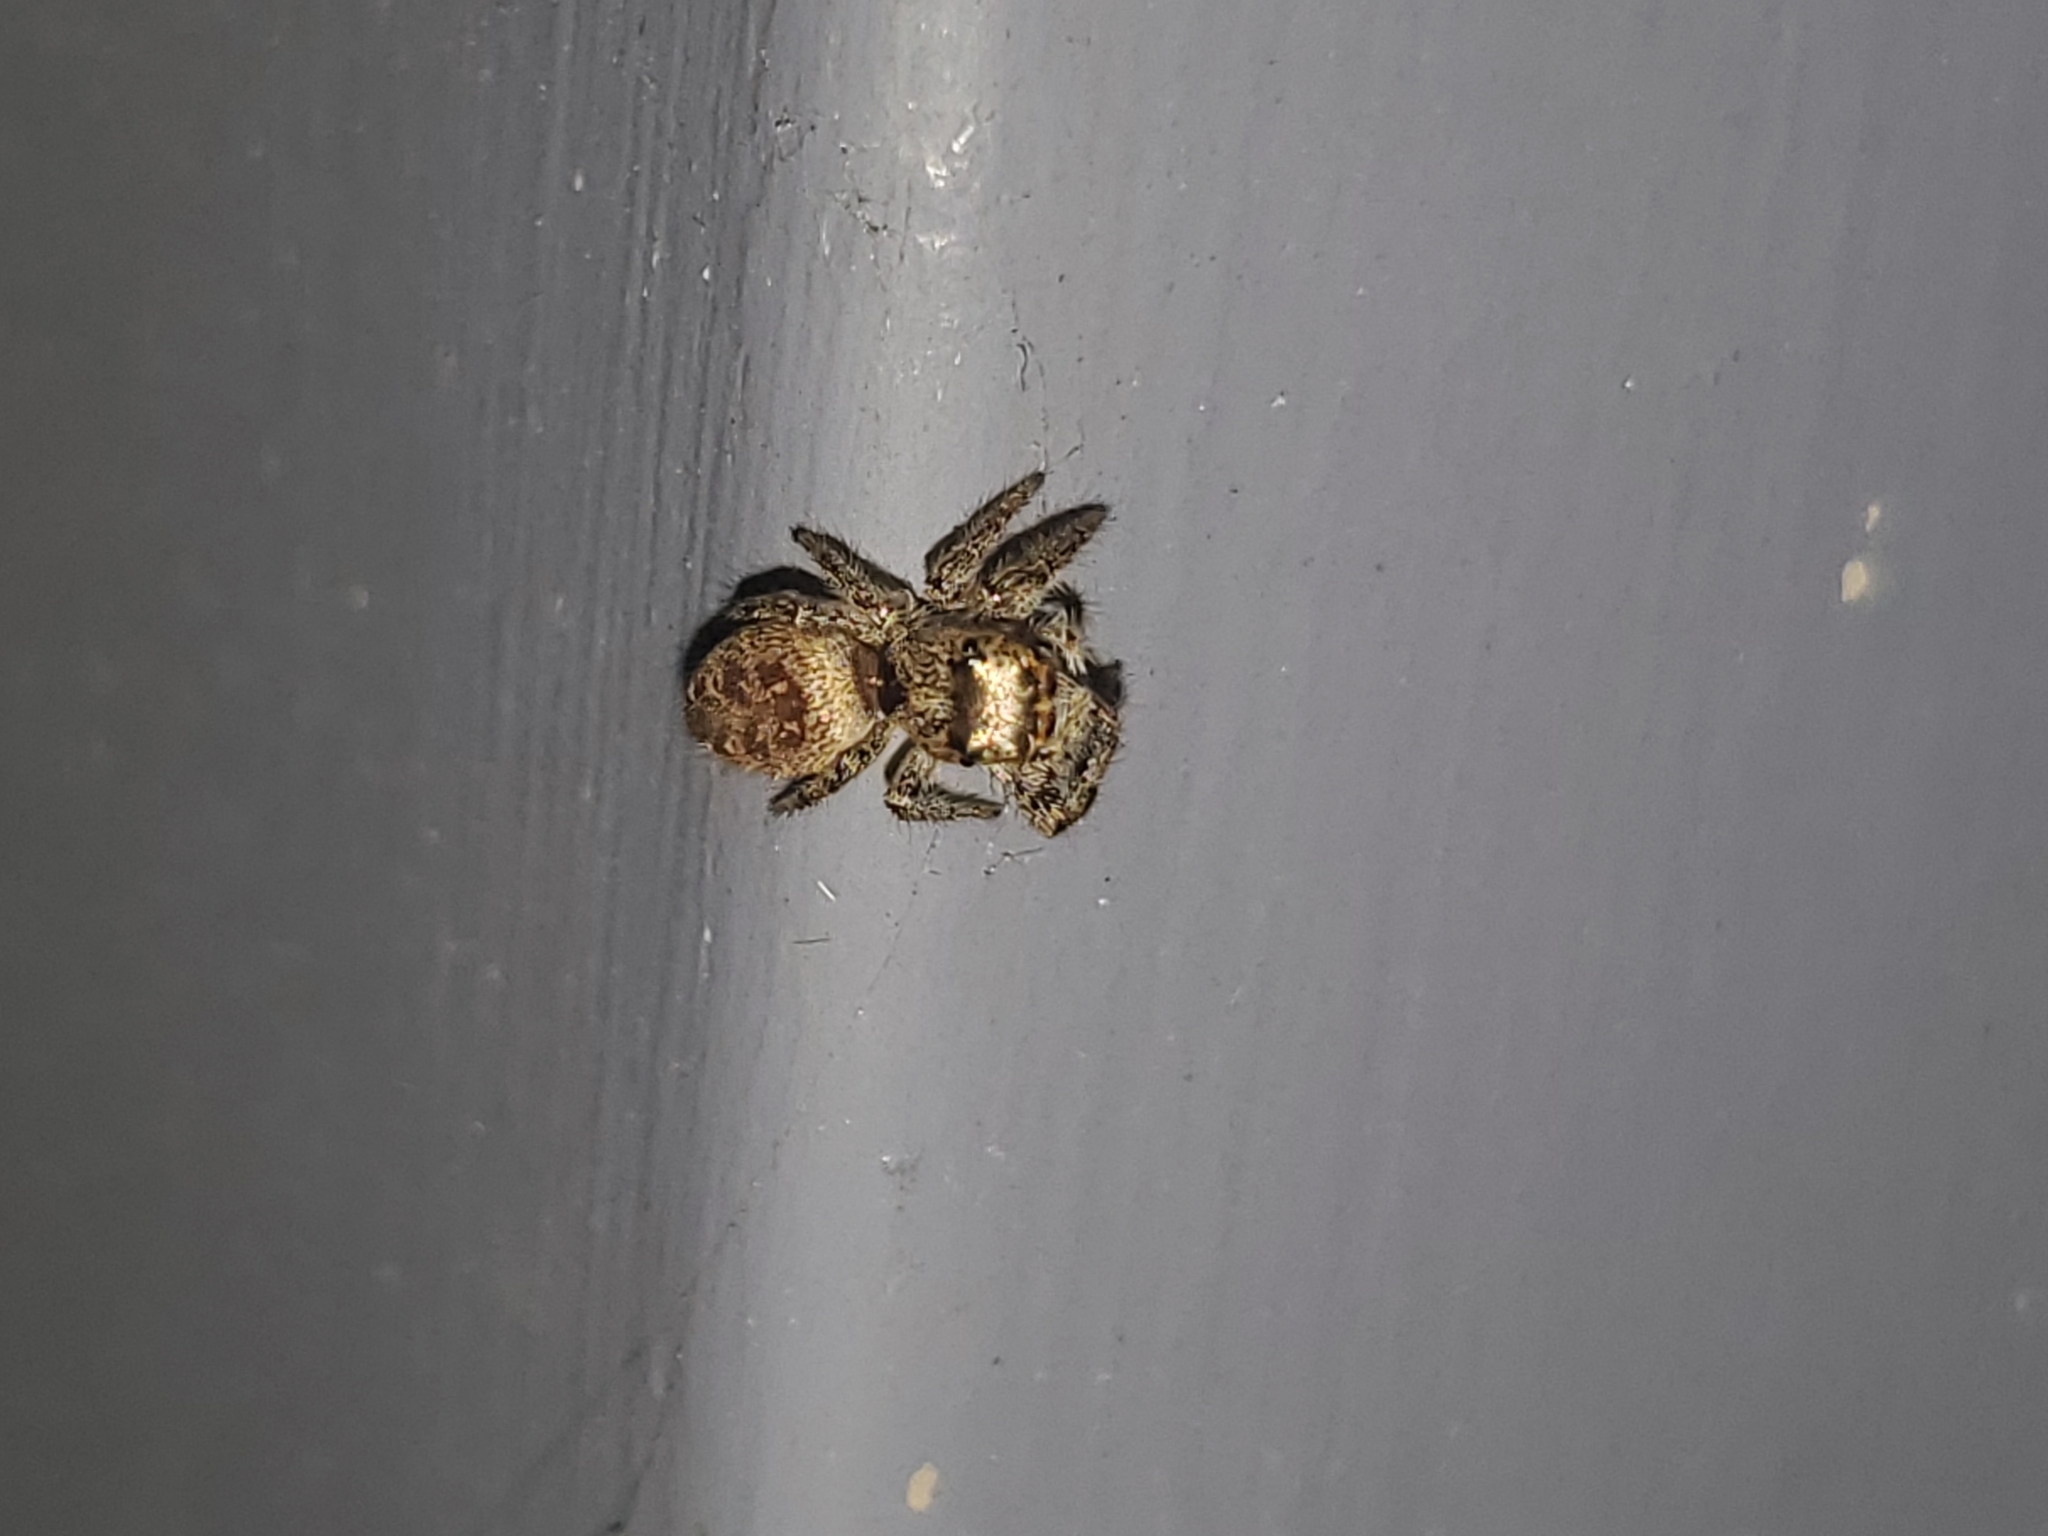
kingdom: Animalia
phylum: Arthropoda
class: Arachnida
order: Araneae
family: Salticidae
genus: Eris
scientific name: Eris militaris
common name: Bronze jumper
